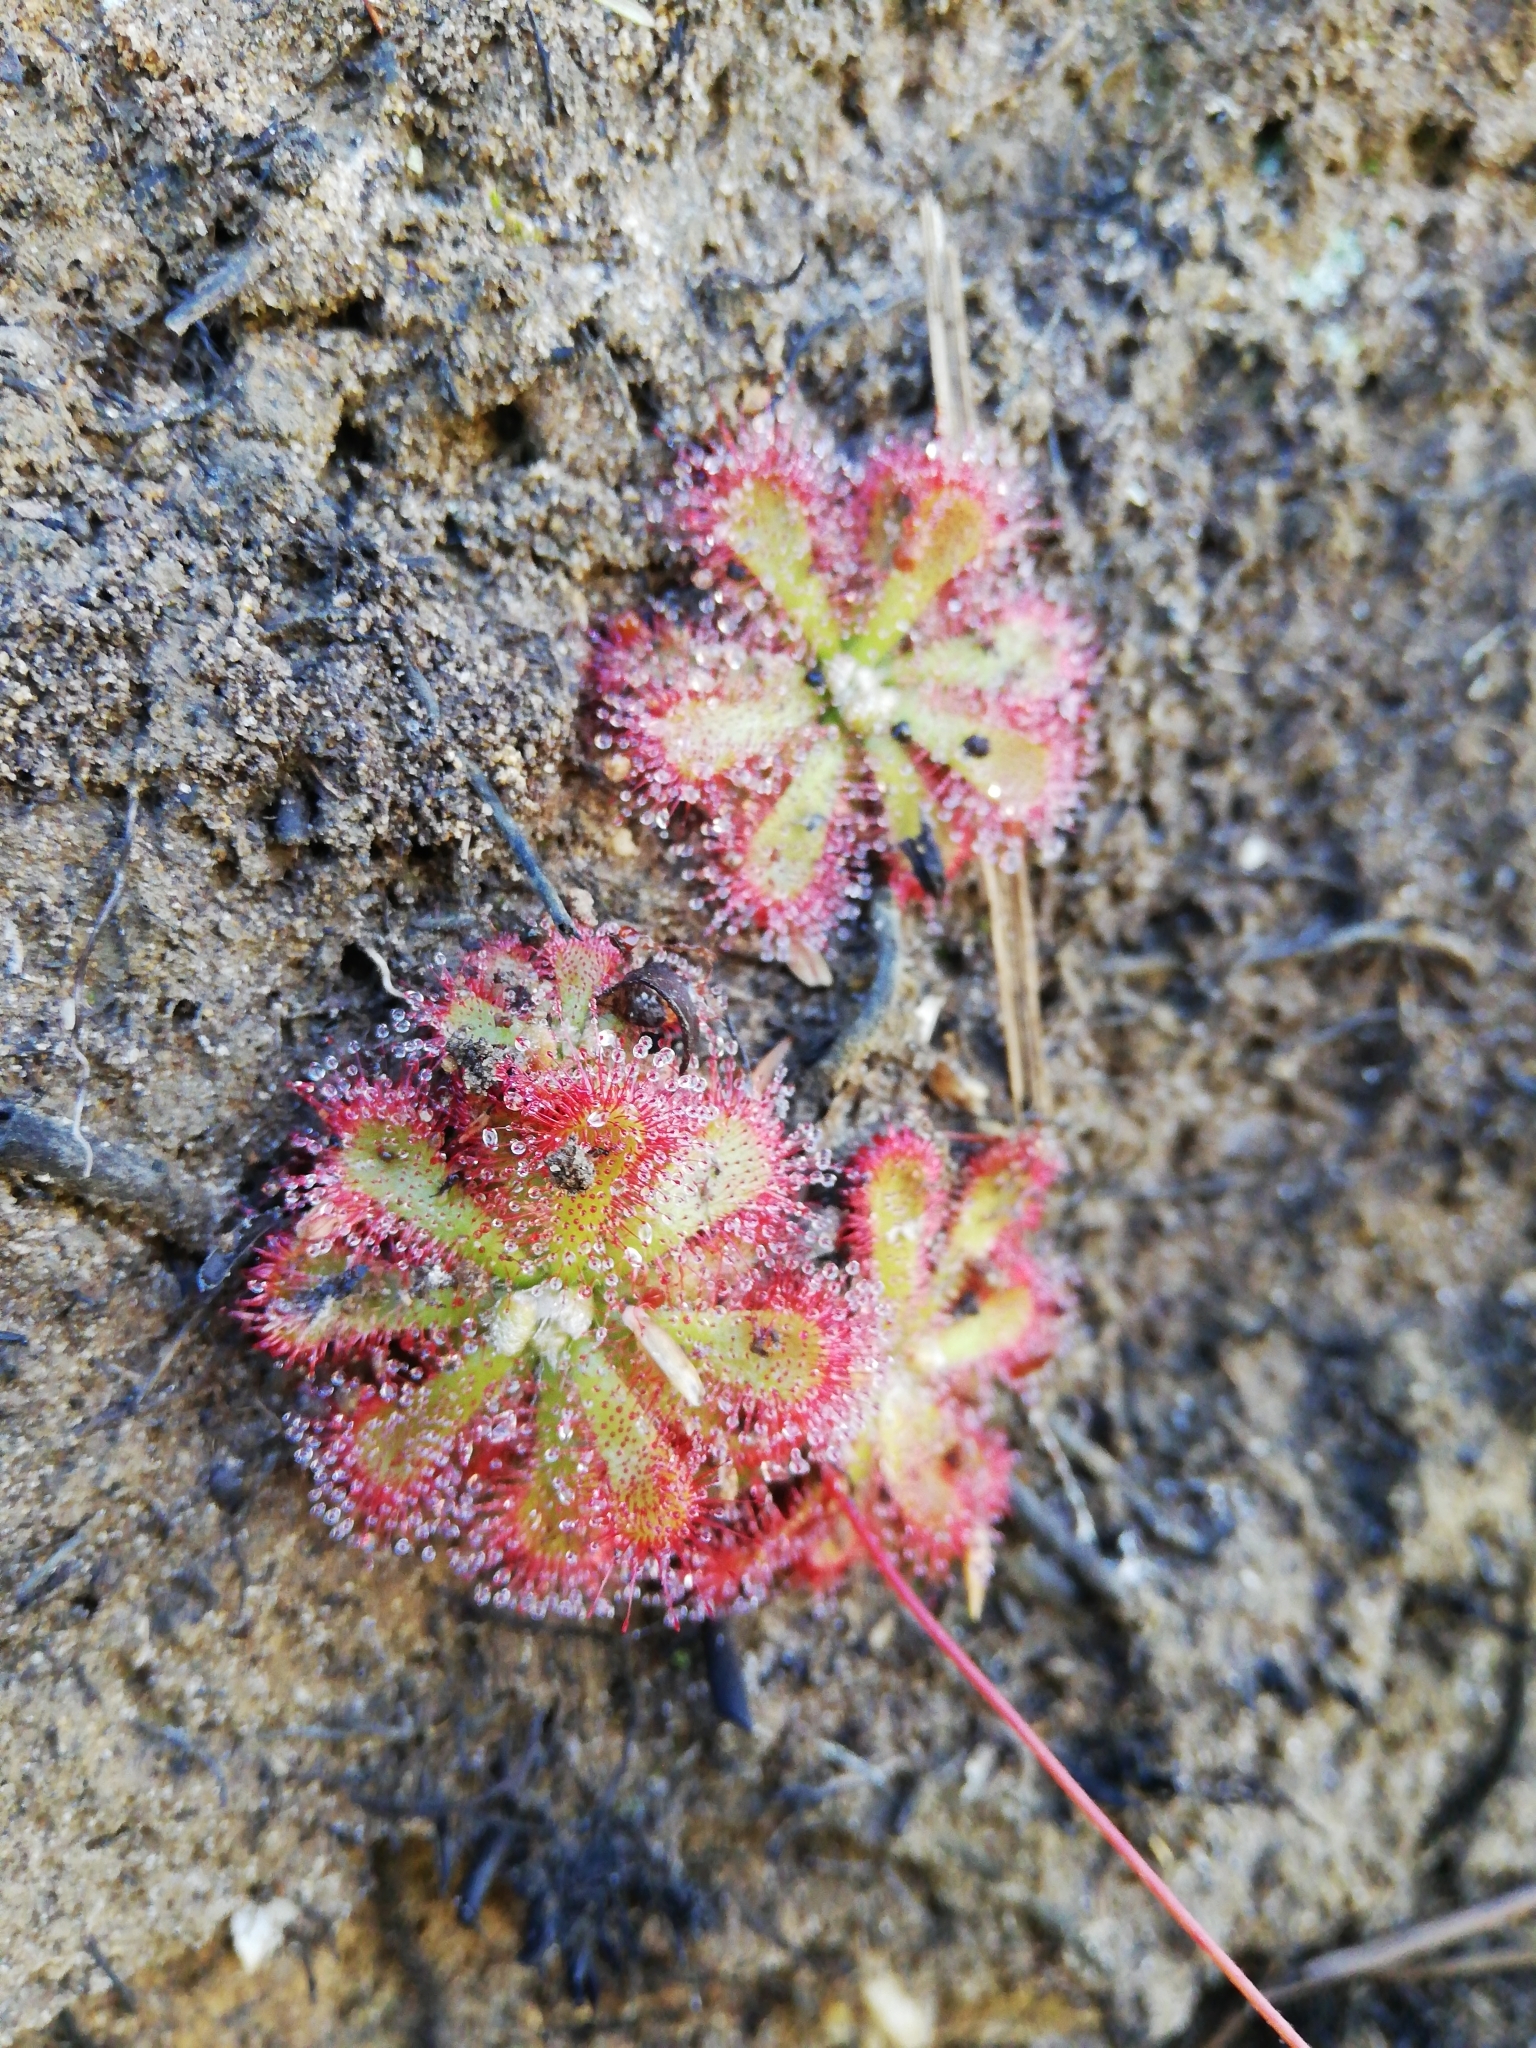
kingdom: Plantae
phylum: Tracheophyta
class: Magnoliopsida
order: Caryophyllales
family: Droseraceae
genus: Drosera
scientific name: Drosera aliciae
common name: Alice sundew
